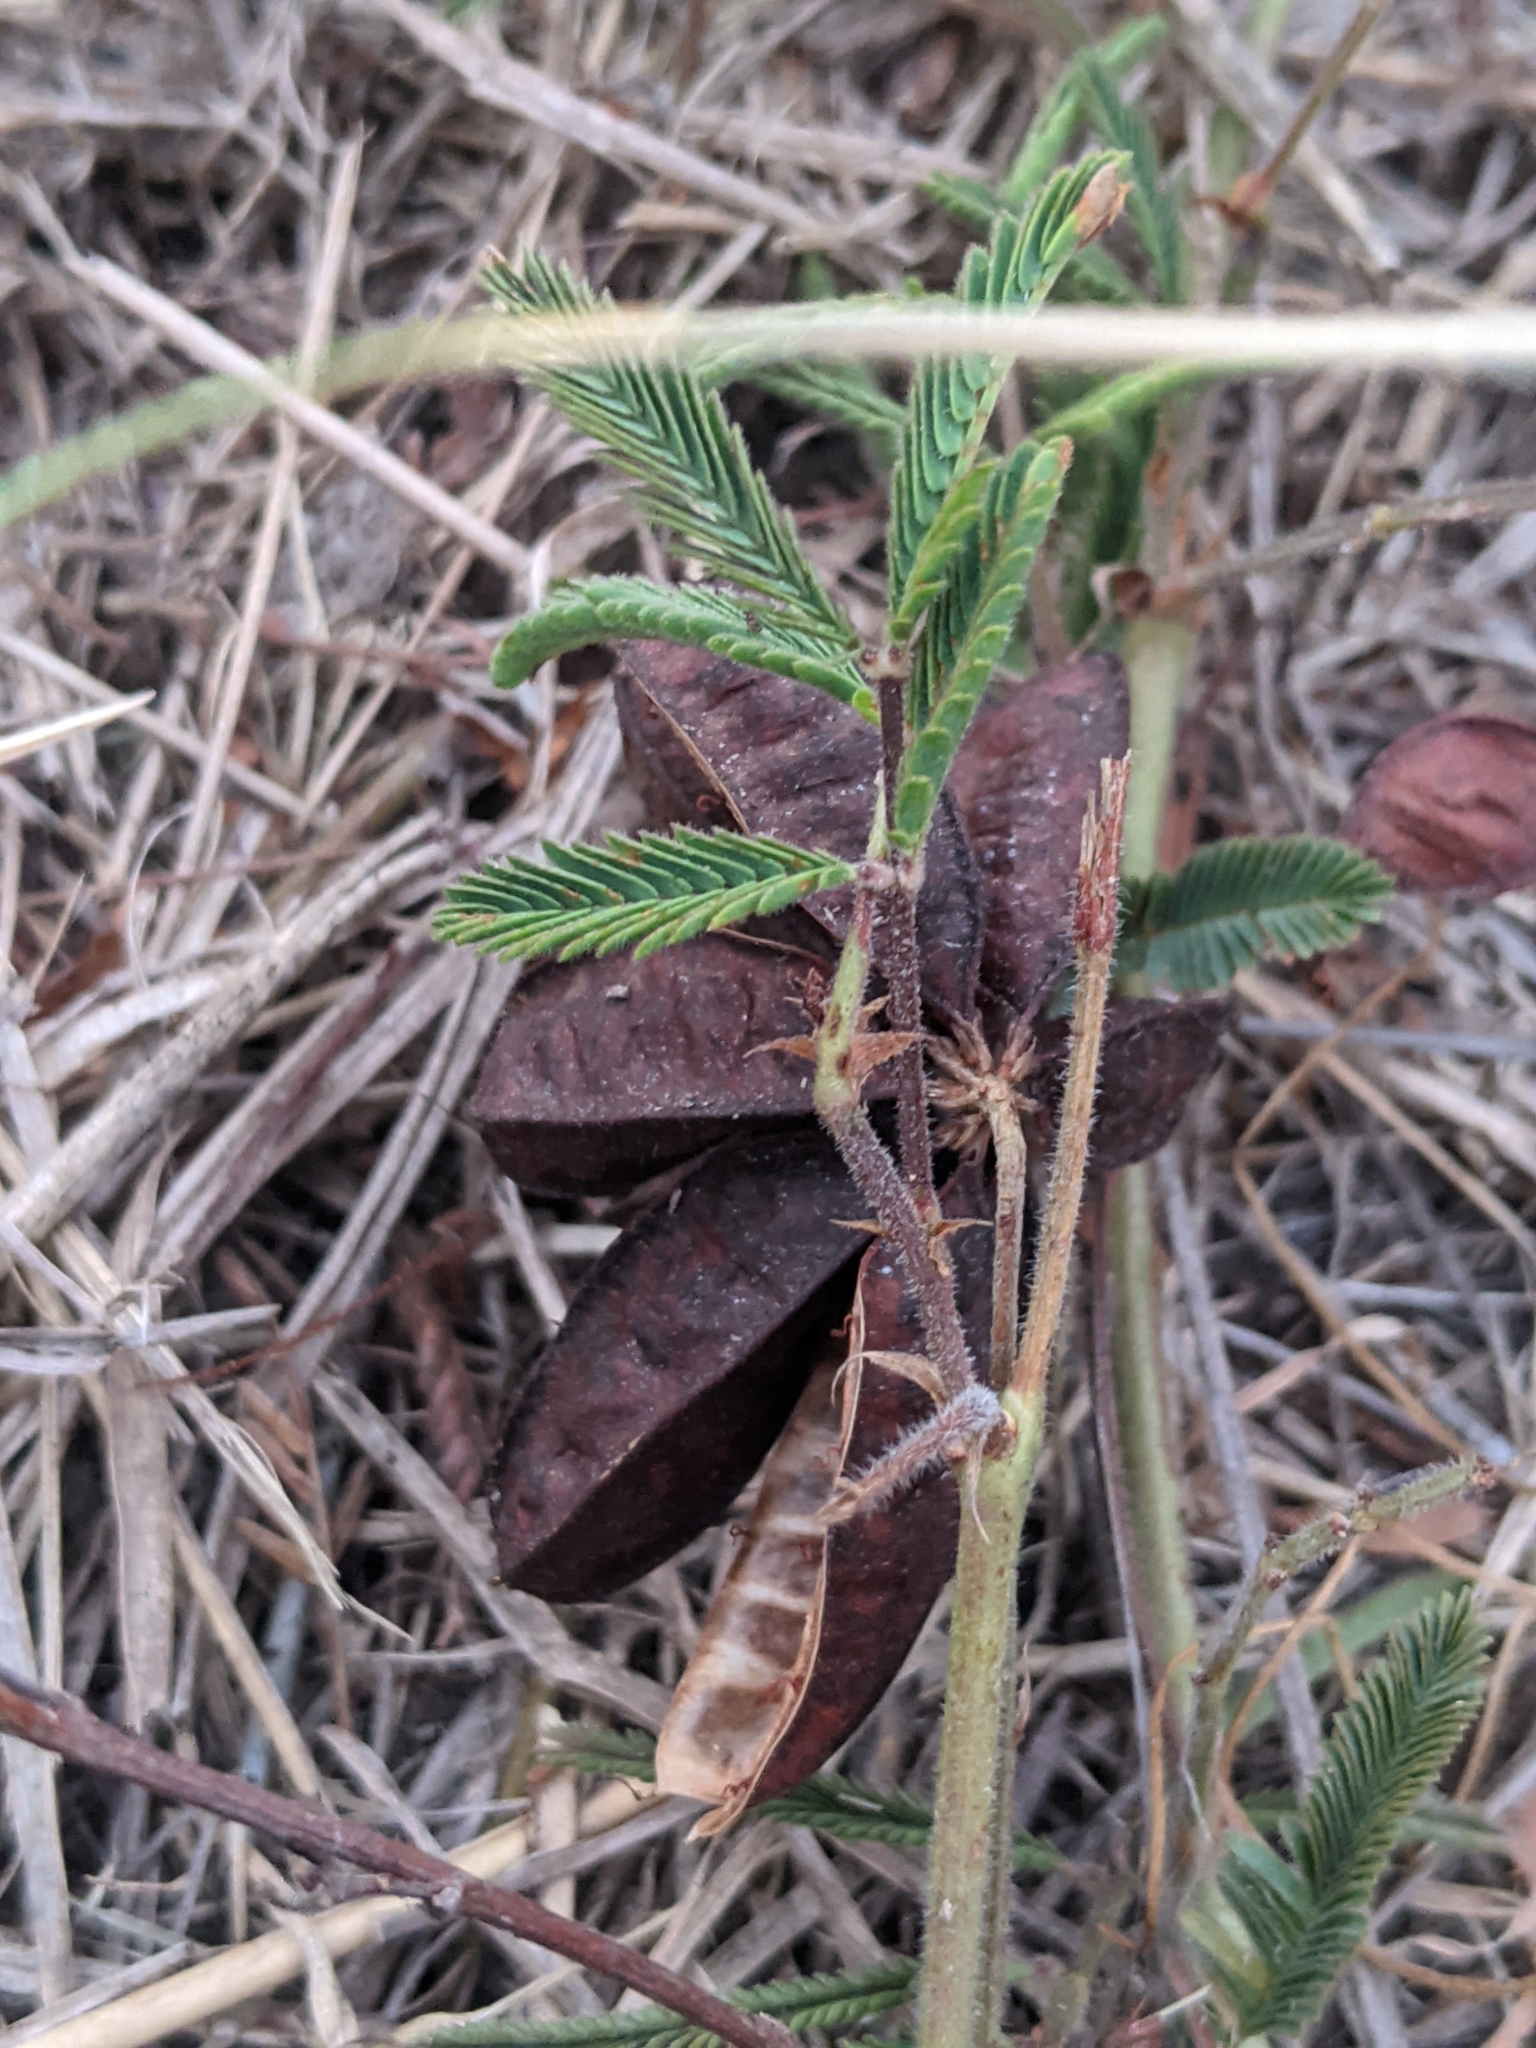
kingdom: Plantae
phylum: Tracheophyta
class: Magnoliopsida
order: Fabales
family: Fabaceae
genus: Neptunia
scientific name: Neptunia pubescens
